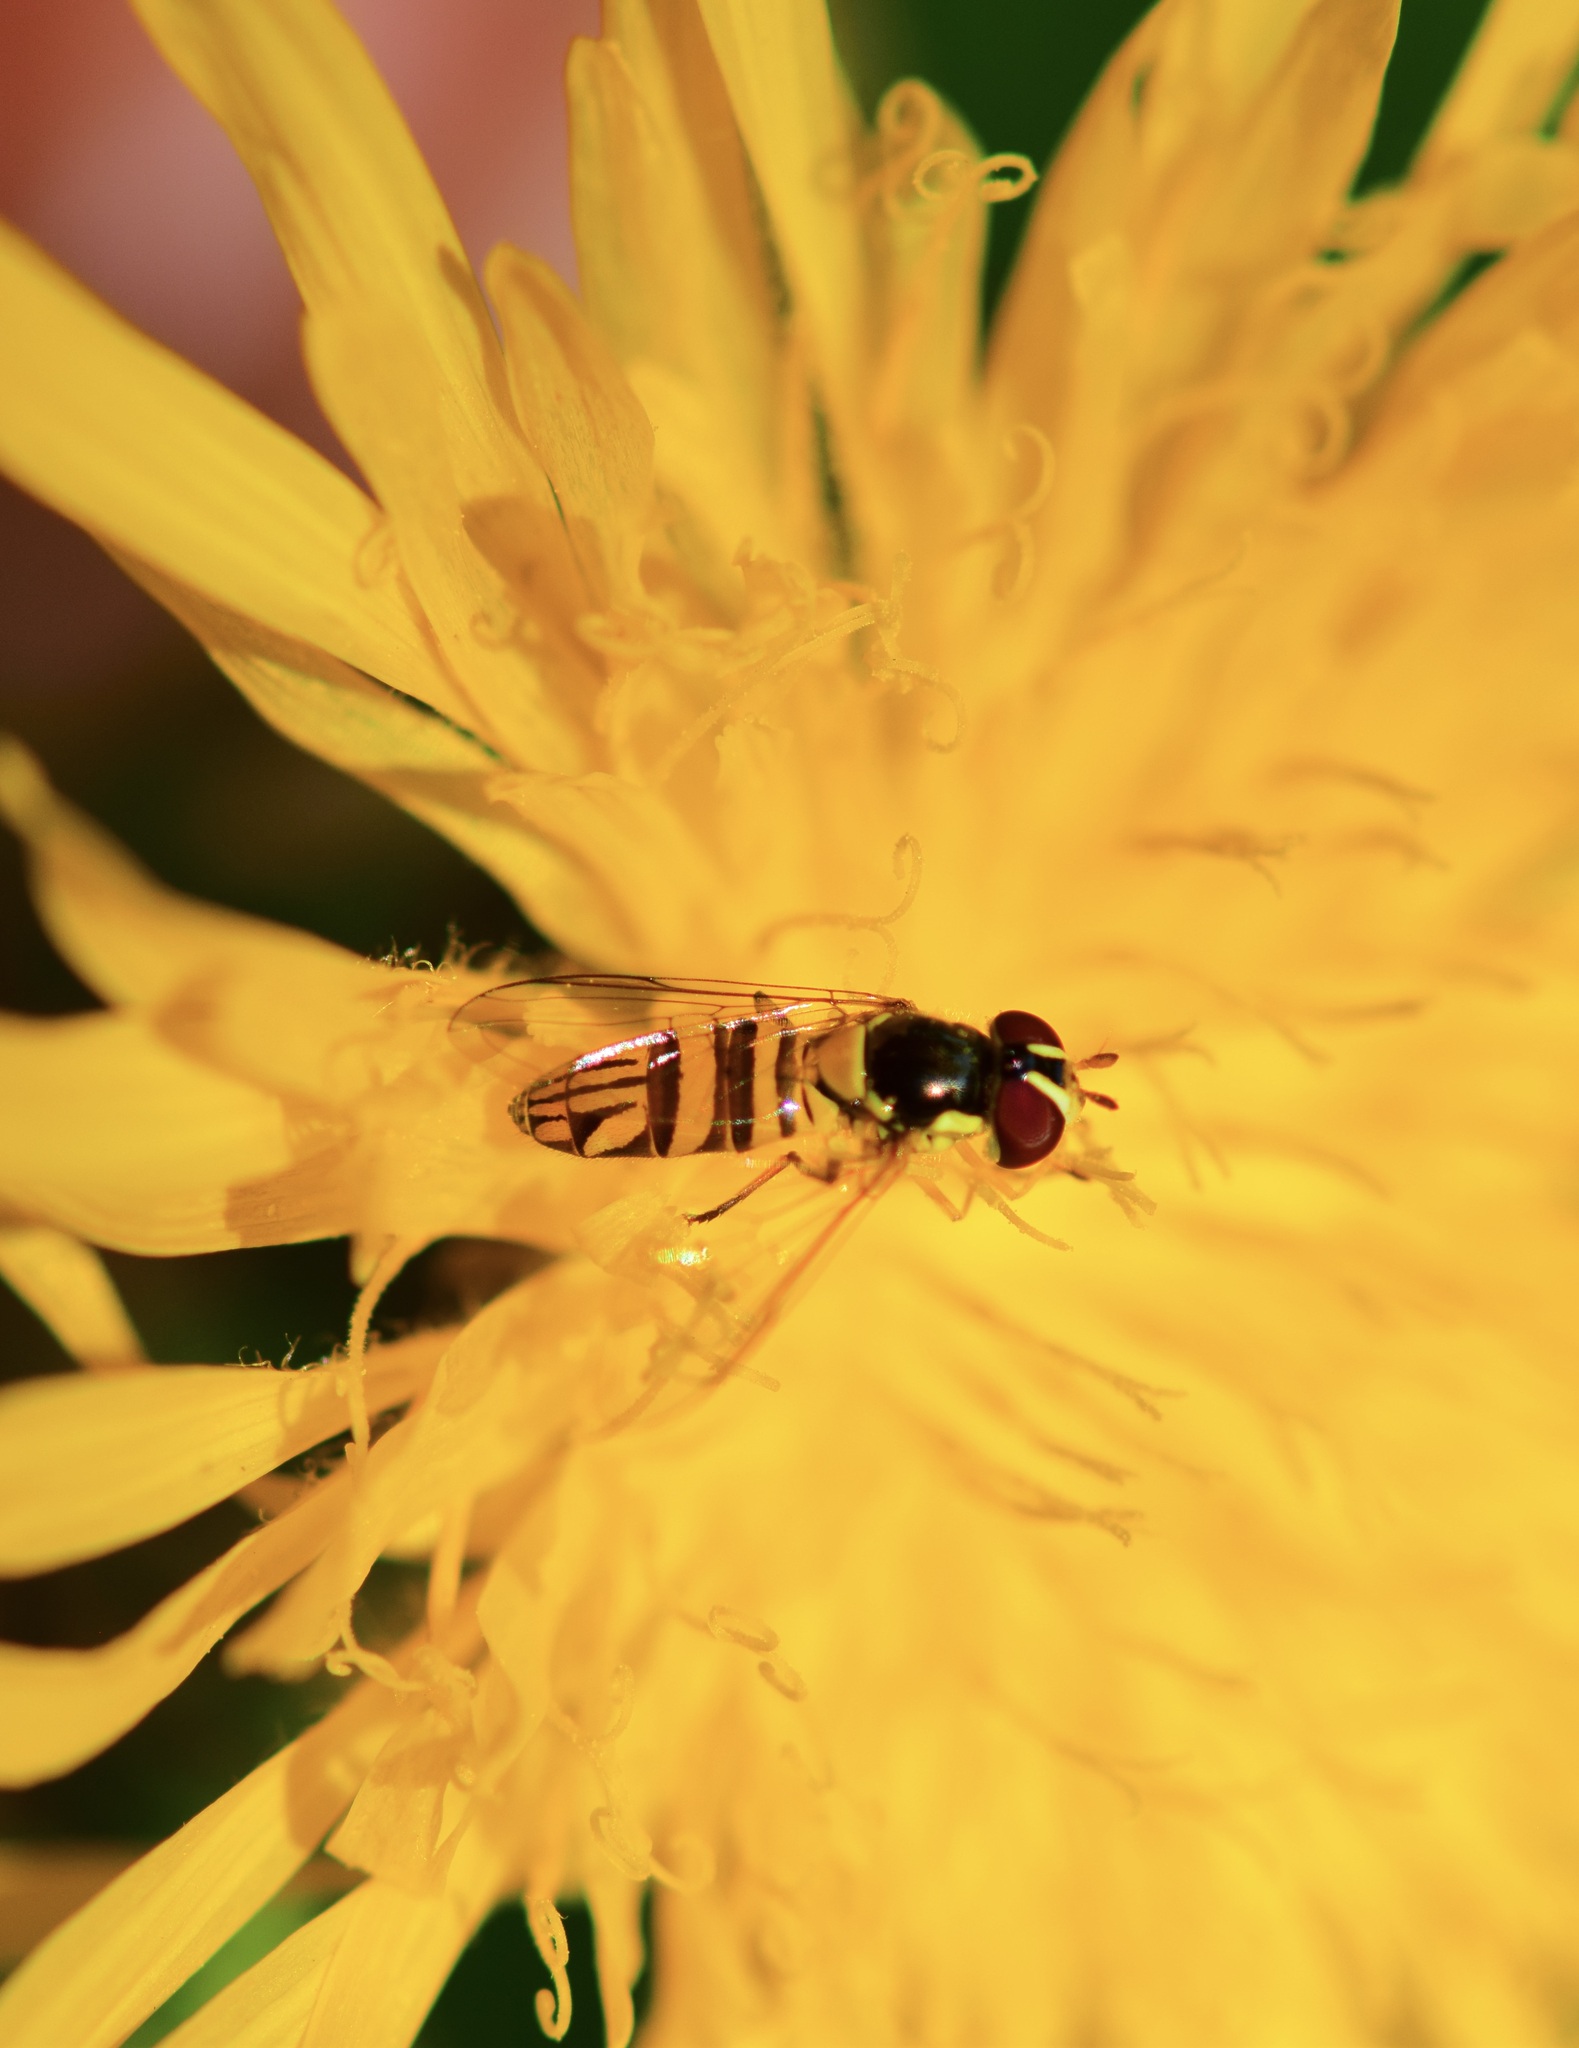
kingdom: Animalia
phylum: Arthropoda
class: Insecta
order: Diptera
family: Syrphidae
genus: Allograpta
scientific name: Allograpta obliqua
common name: Common oblique syrphid
